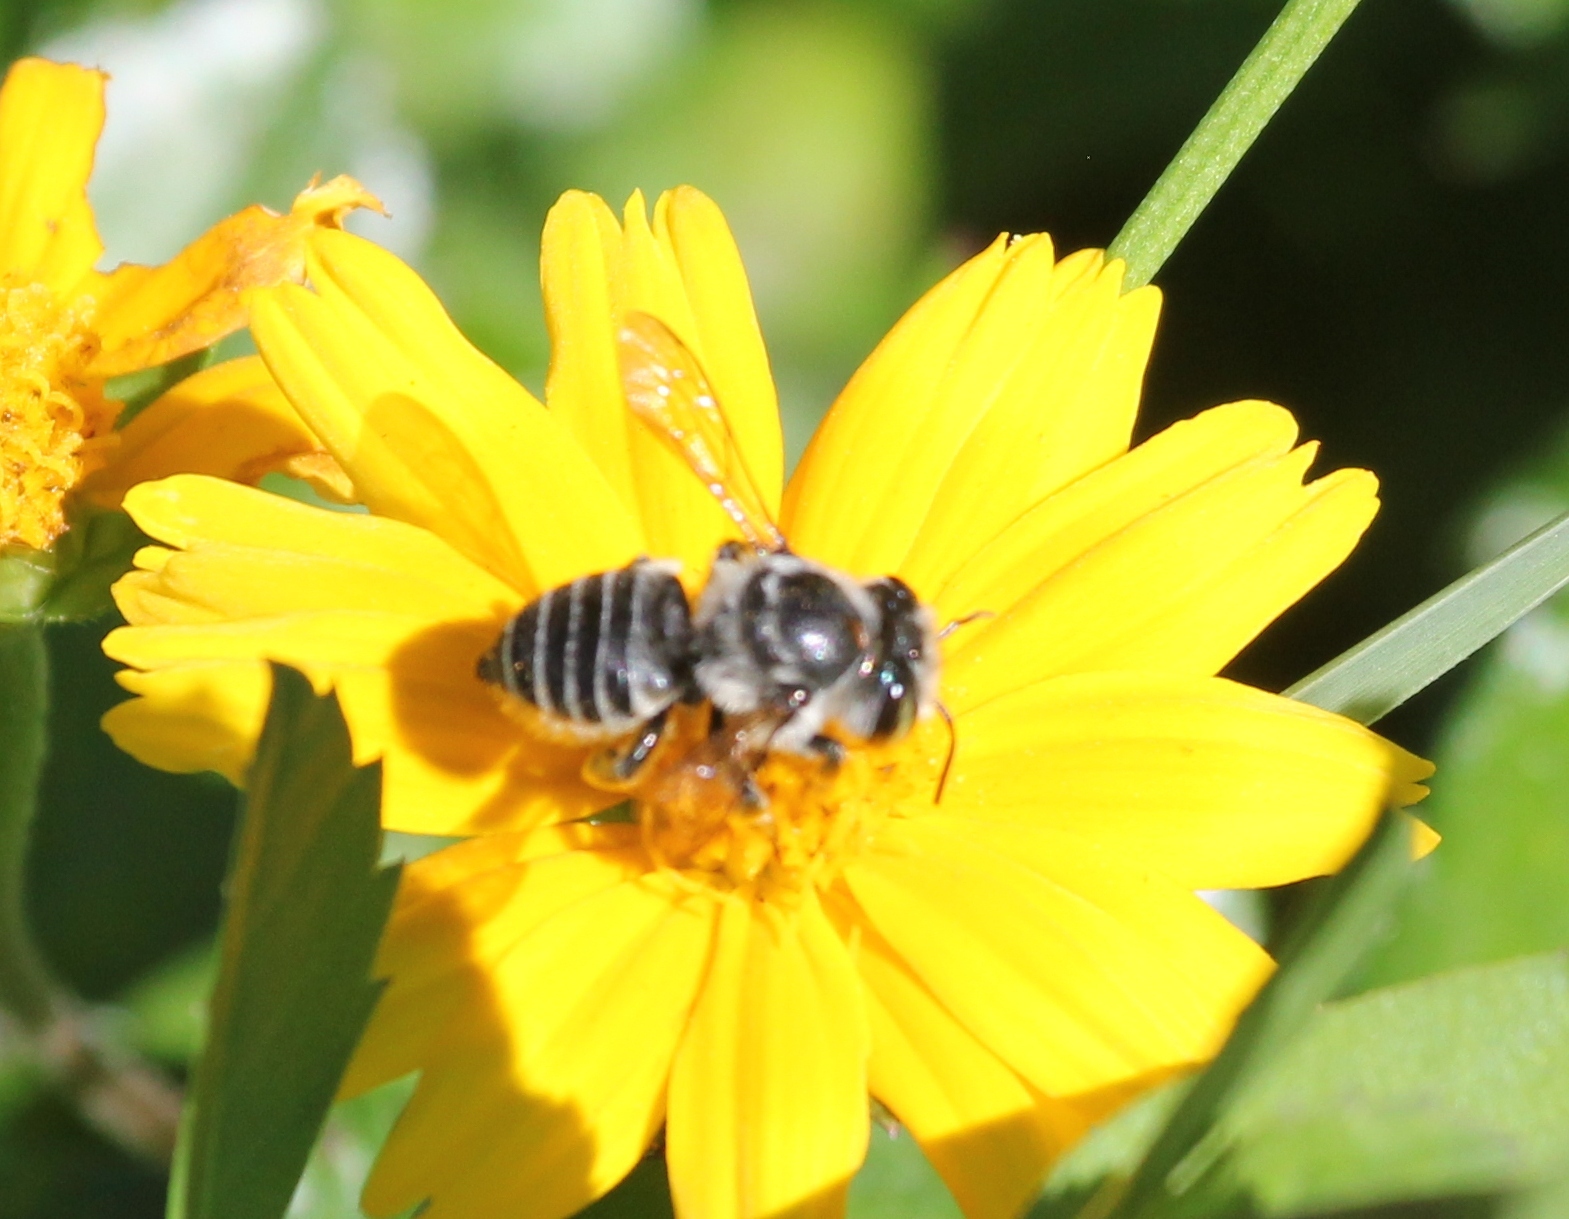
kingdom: Animalia
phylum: Arthropoda
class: Insecta
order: Hymenoptera
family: Megachilidae
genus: Megachile
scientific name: Megachile petulans
